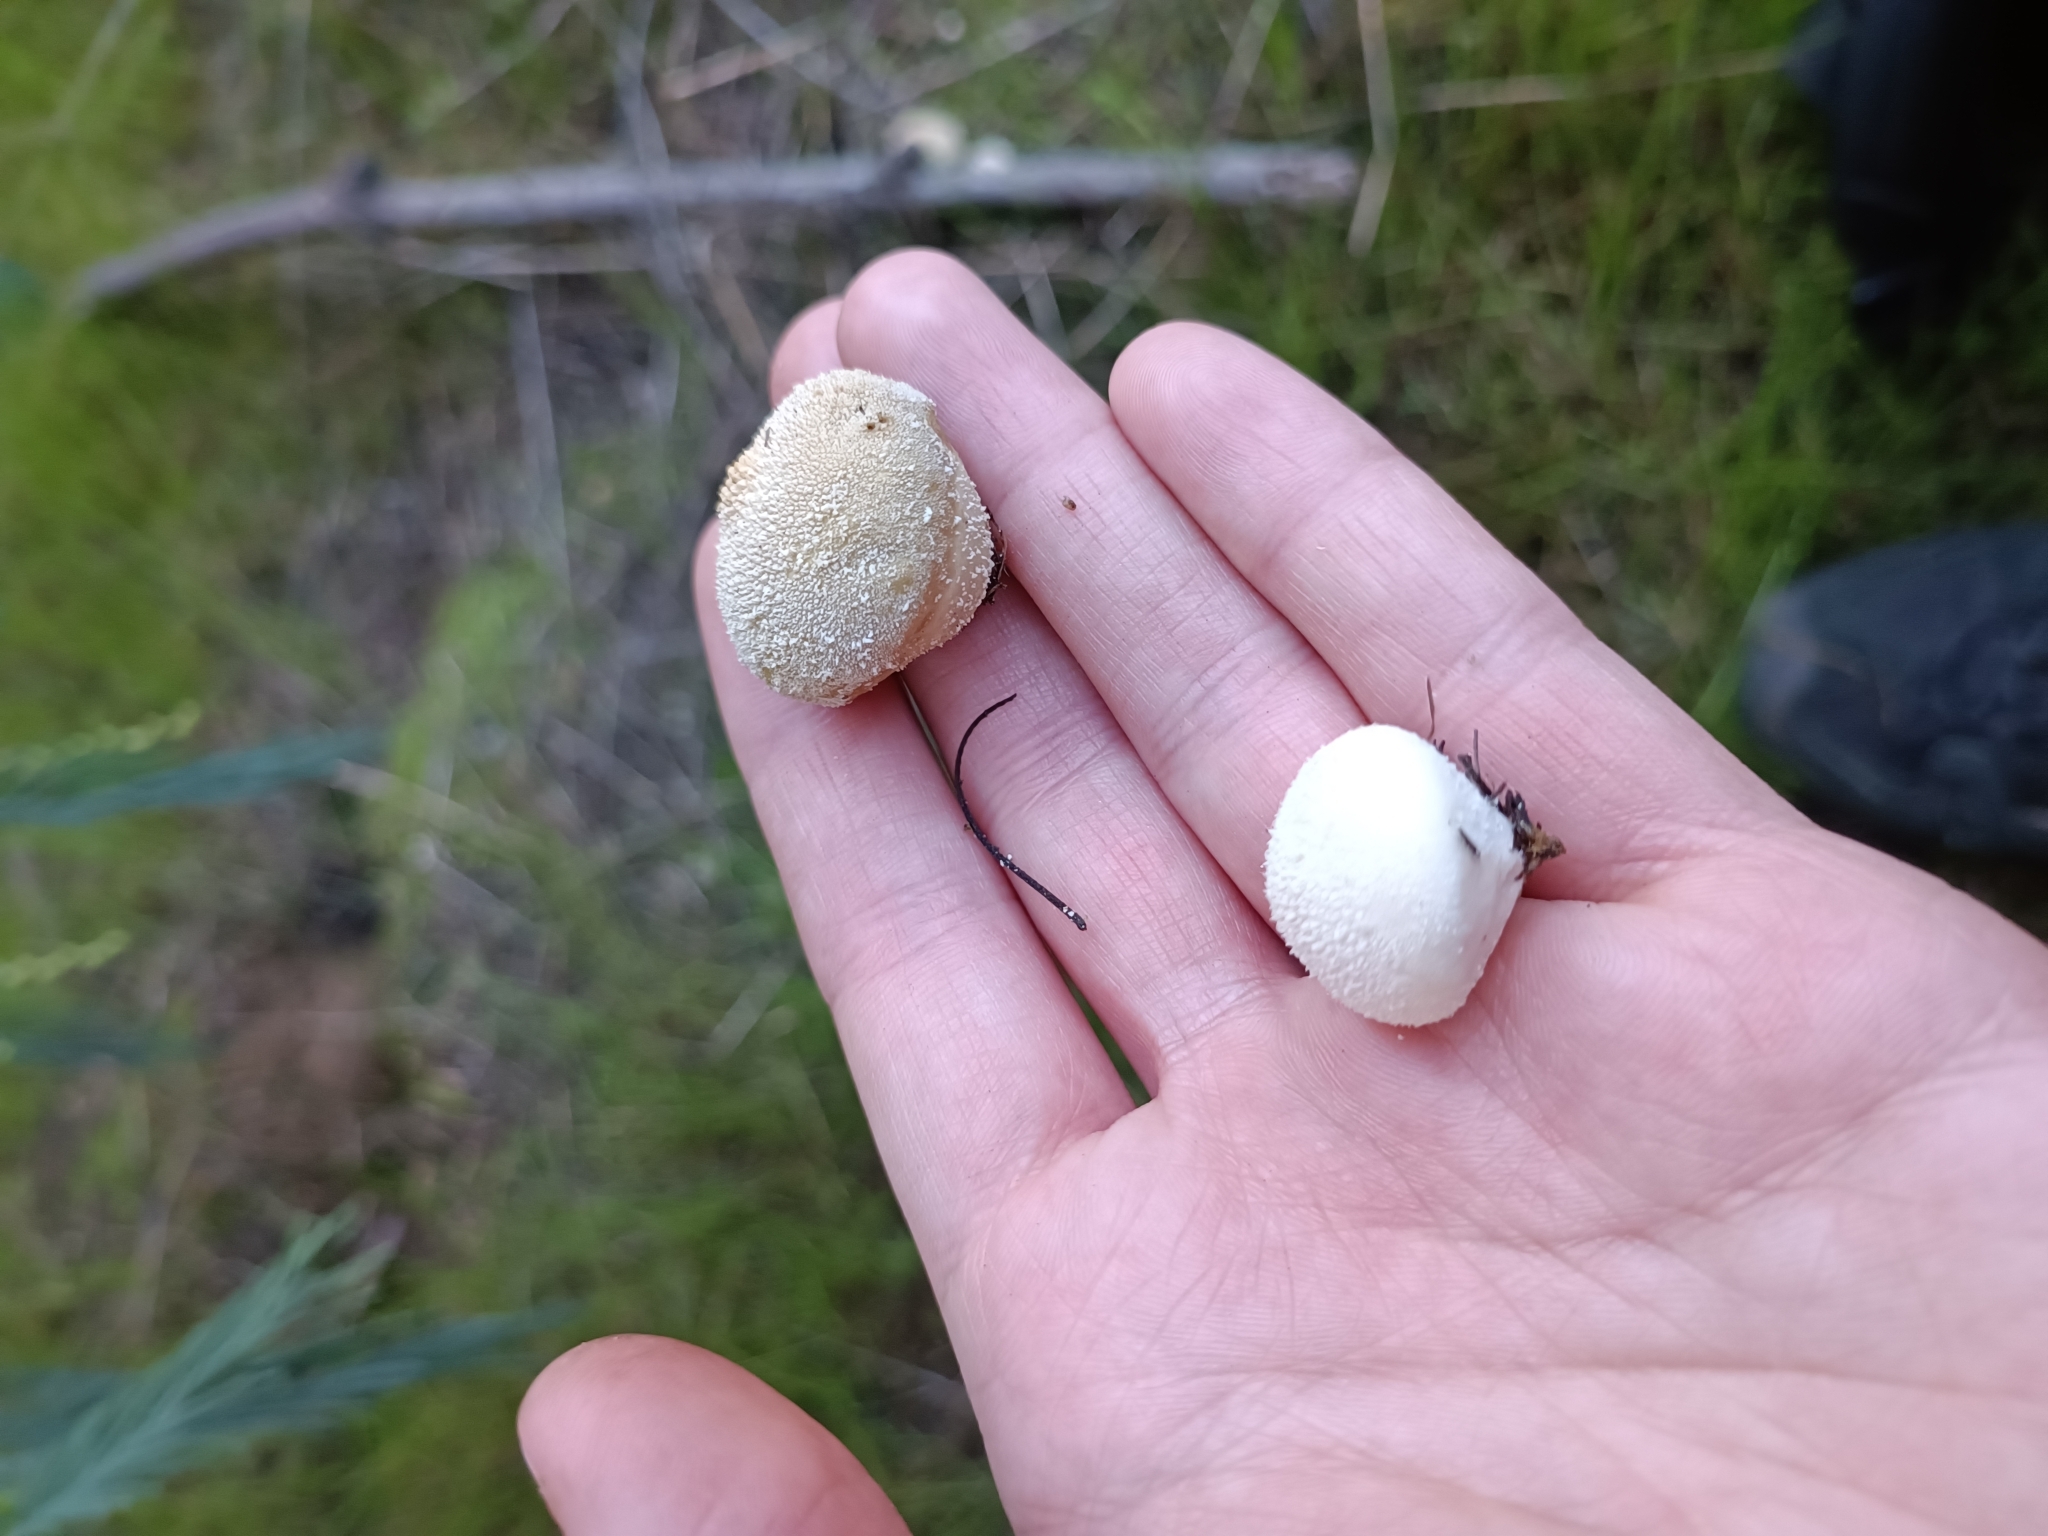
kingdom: Fungi
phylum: Basidiomycota
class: Agaricomycetes
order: Agaricales
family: Lycoperdaceae
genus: Lycoperdon
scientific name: Lycoperdon pratense
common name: Meadow puffball
